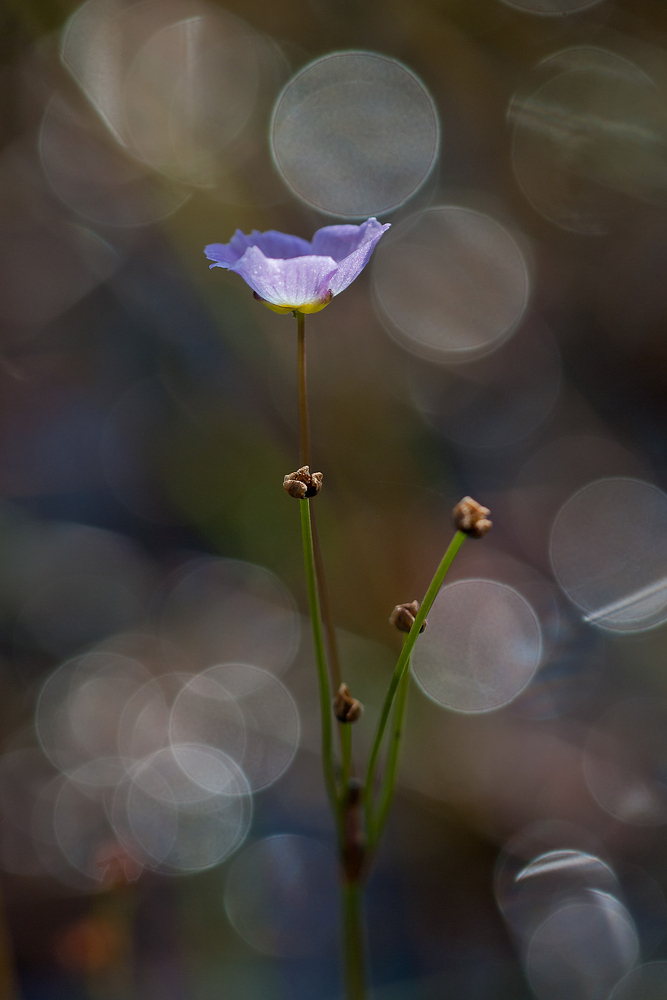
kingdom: Plantae
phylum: Tracheophyta
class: Liliopsida
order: Alismatales
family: Alismataceae
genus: Baldellia
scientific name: Baldellia ranunculoides
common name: Lesser water-plantain
